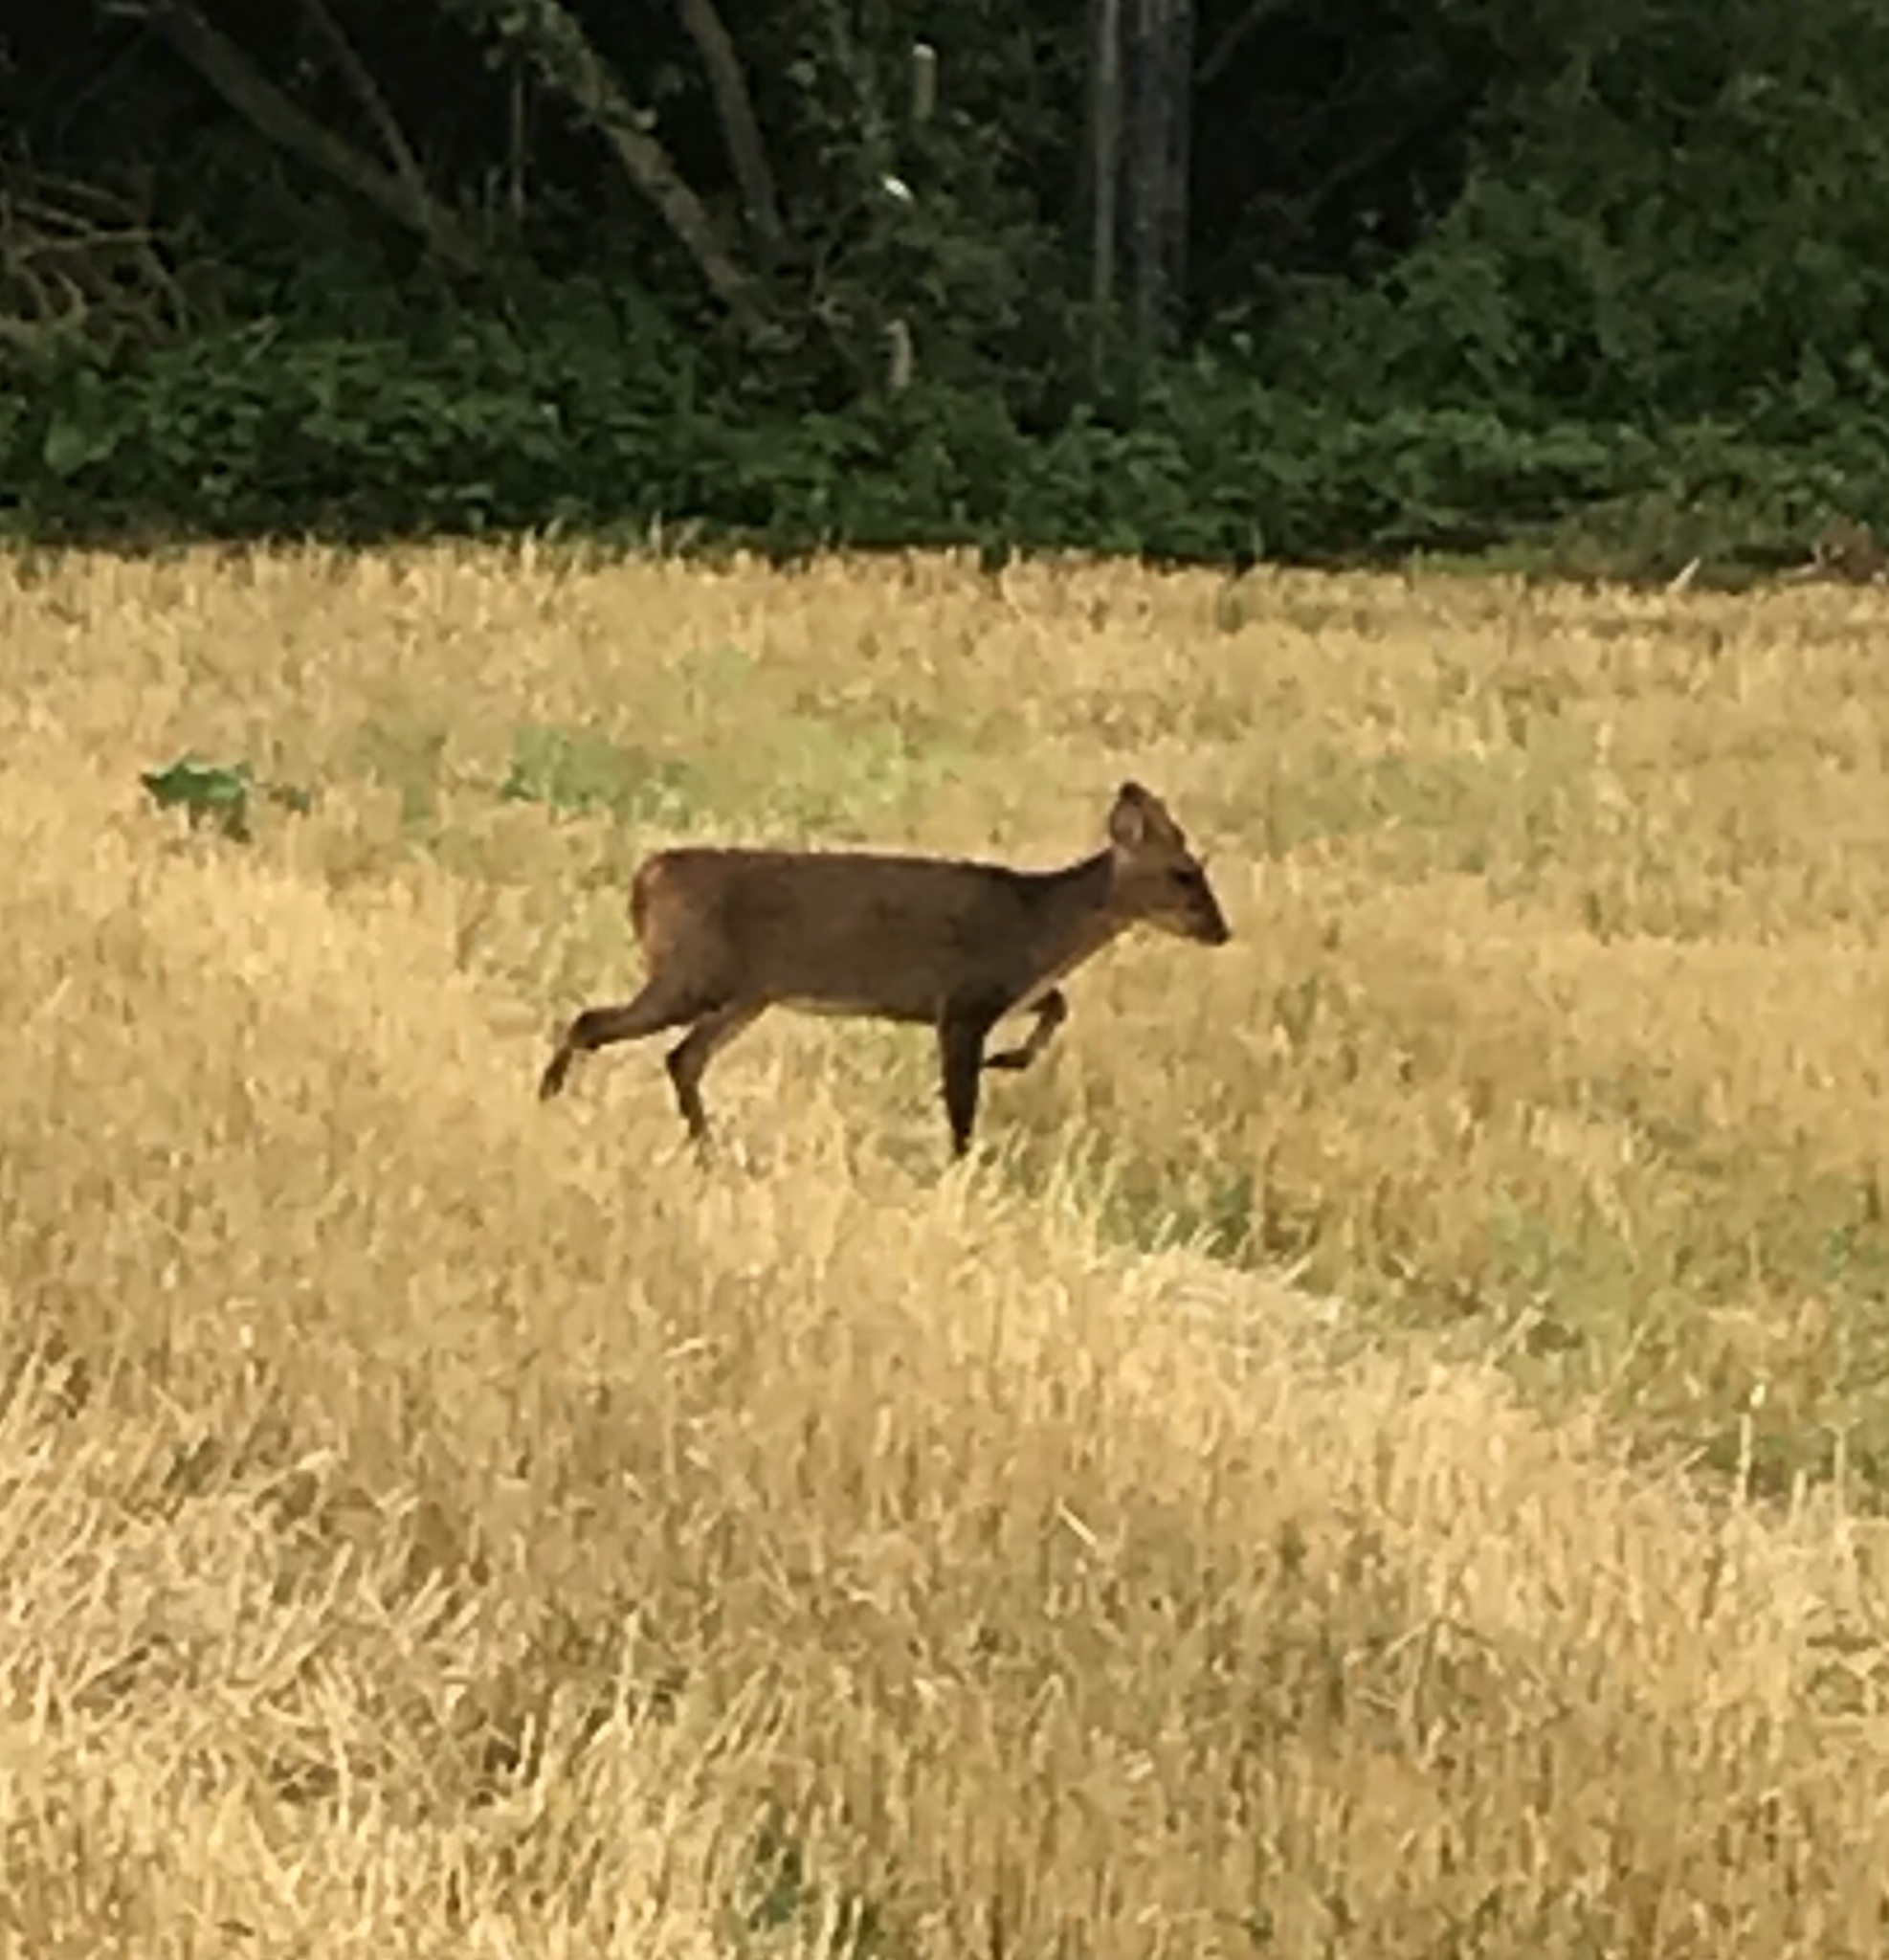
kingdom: Animalia
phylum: Chordata
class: Mammalia
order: Artiodactyla
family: Cervidae
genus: Muntiacus
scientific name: Muntiacus reevesi
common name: Reeves' muntjac
